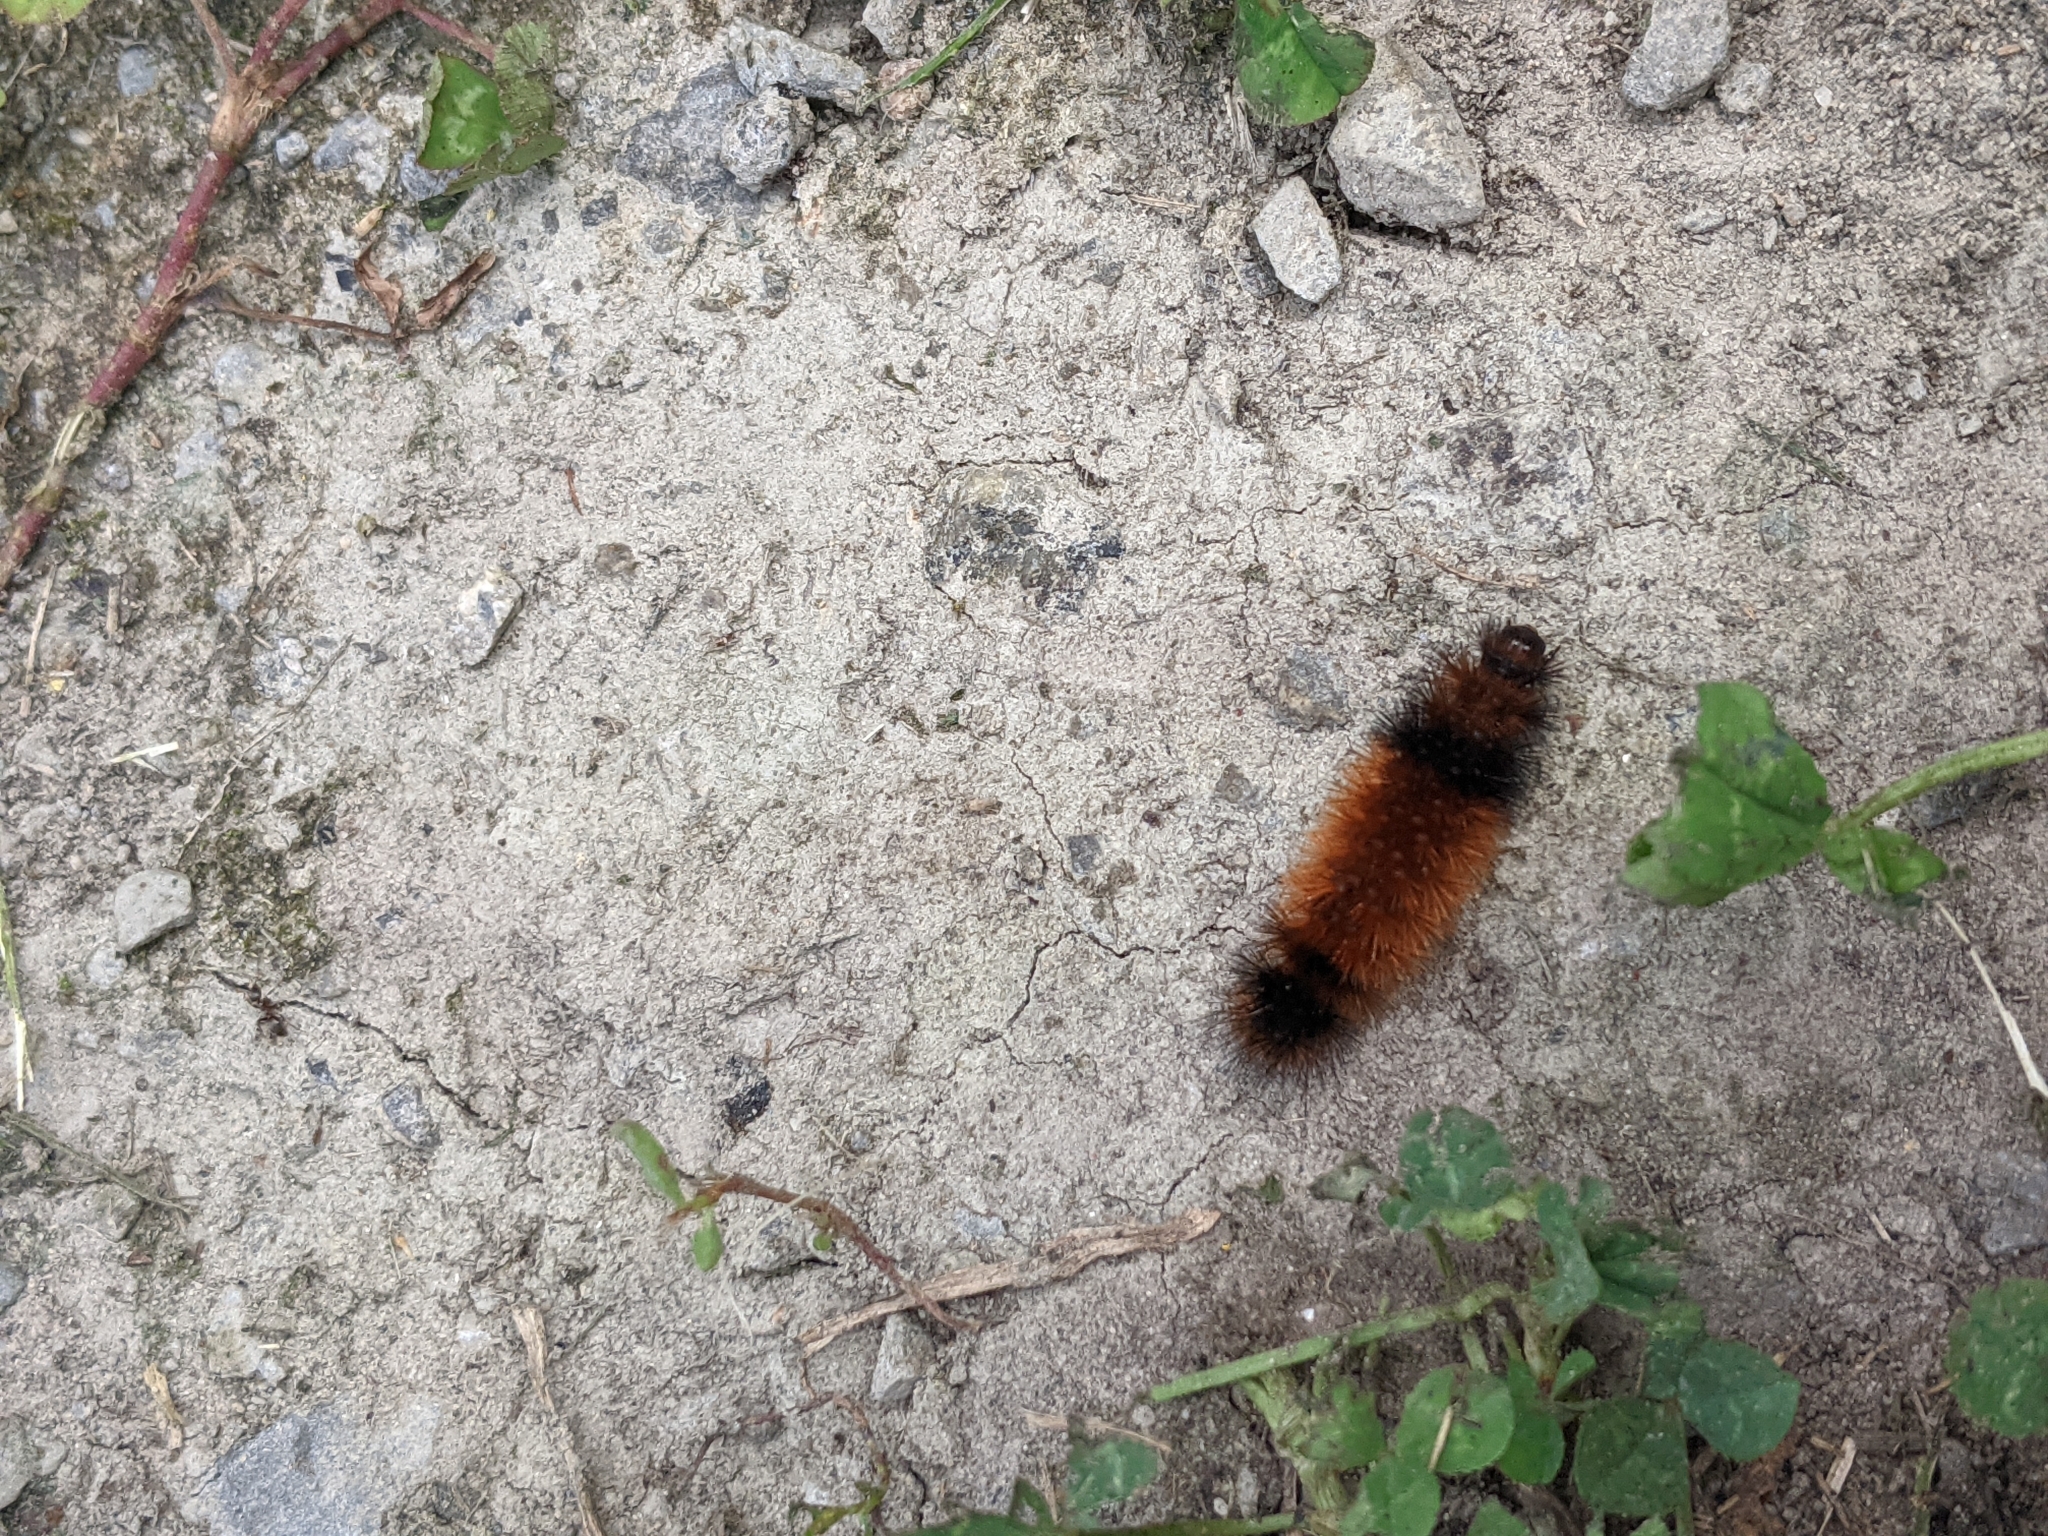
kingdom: Animalia
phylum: Arthropoda
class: Insecta
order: Lepidoptera
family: Erebidae
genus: Pyrrharctia
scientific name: Pyrrharctia isabella
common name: Isabella tiger moth
